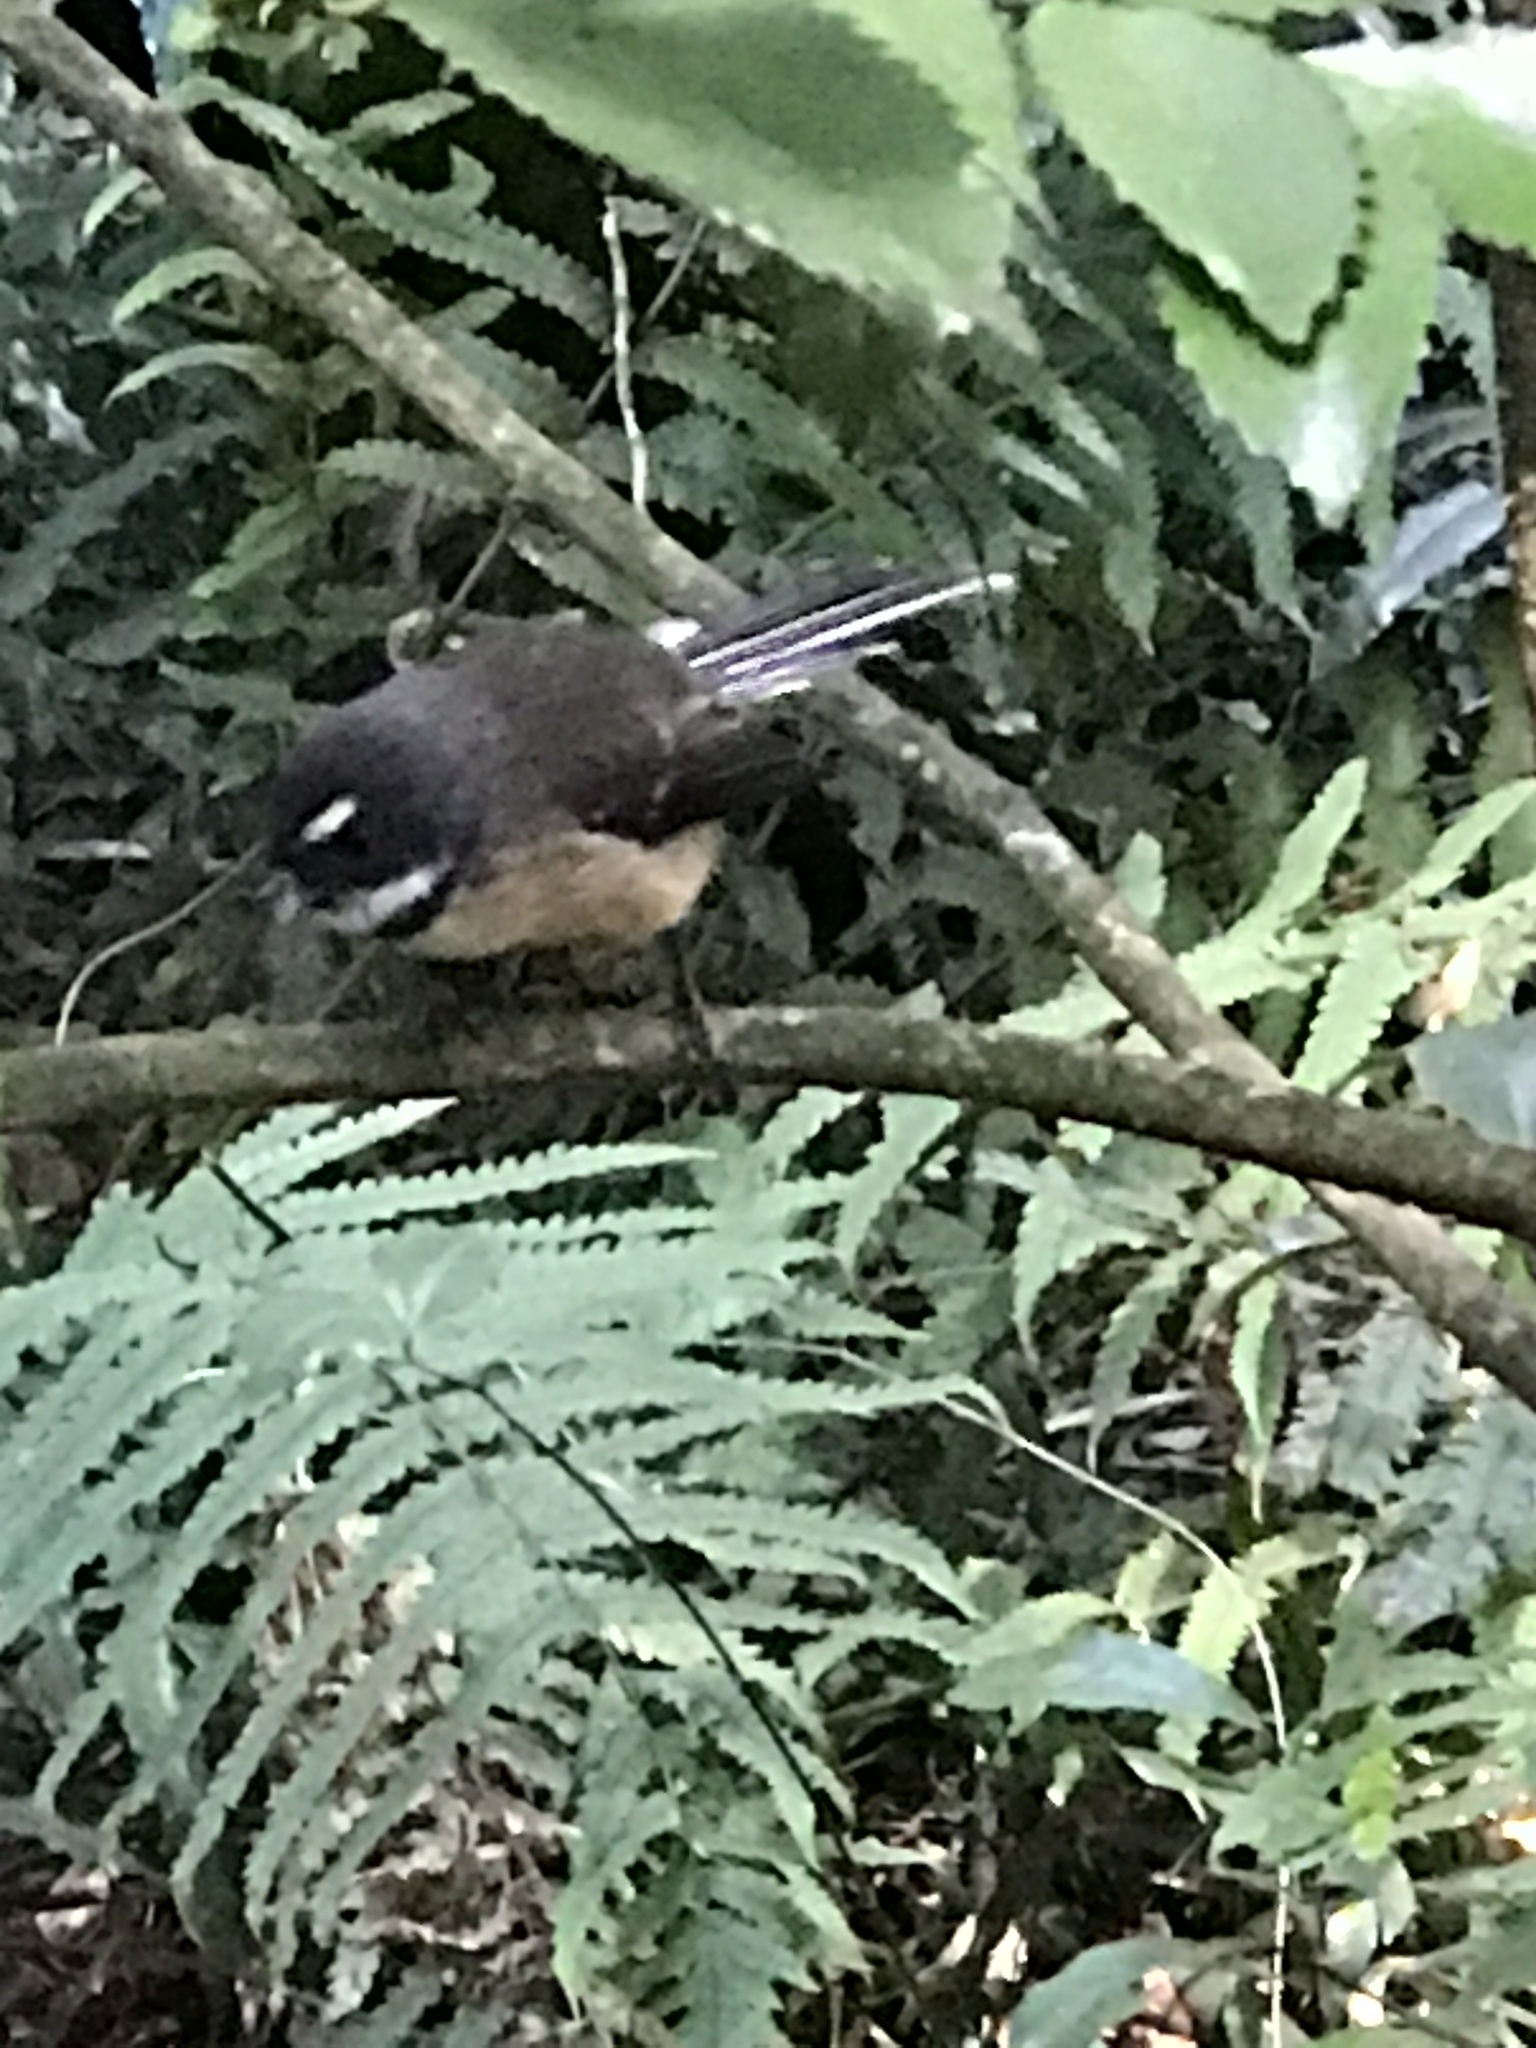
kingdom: Animalia
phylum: Chordata
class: Aves
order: Passeriformes
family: Rhipiduridae
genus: Rhipidura
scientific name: Rhipidura fuliginosa
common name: New zealand fantail
